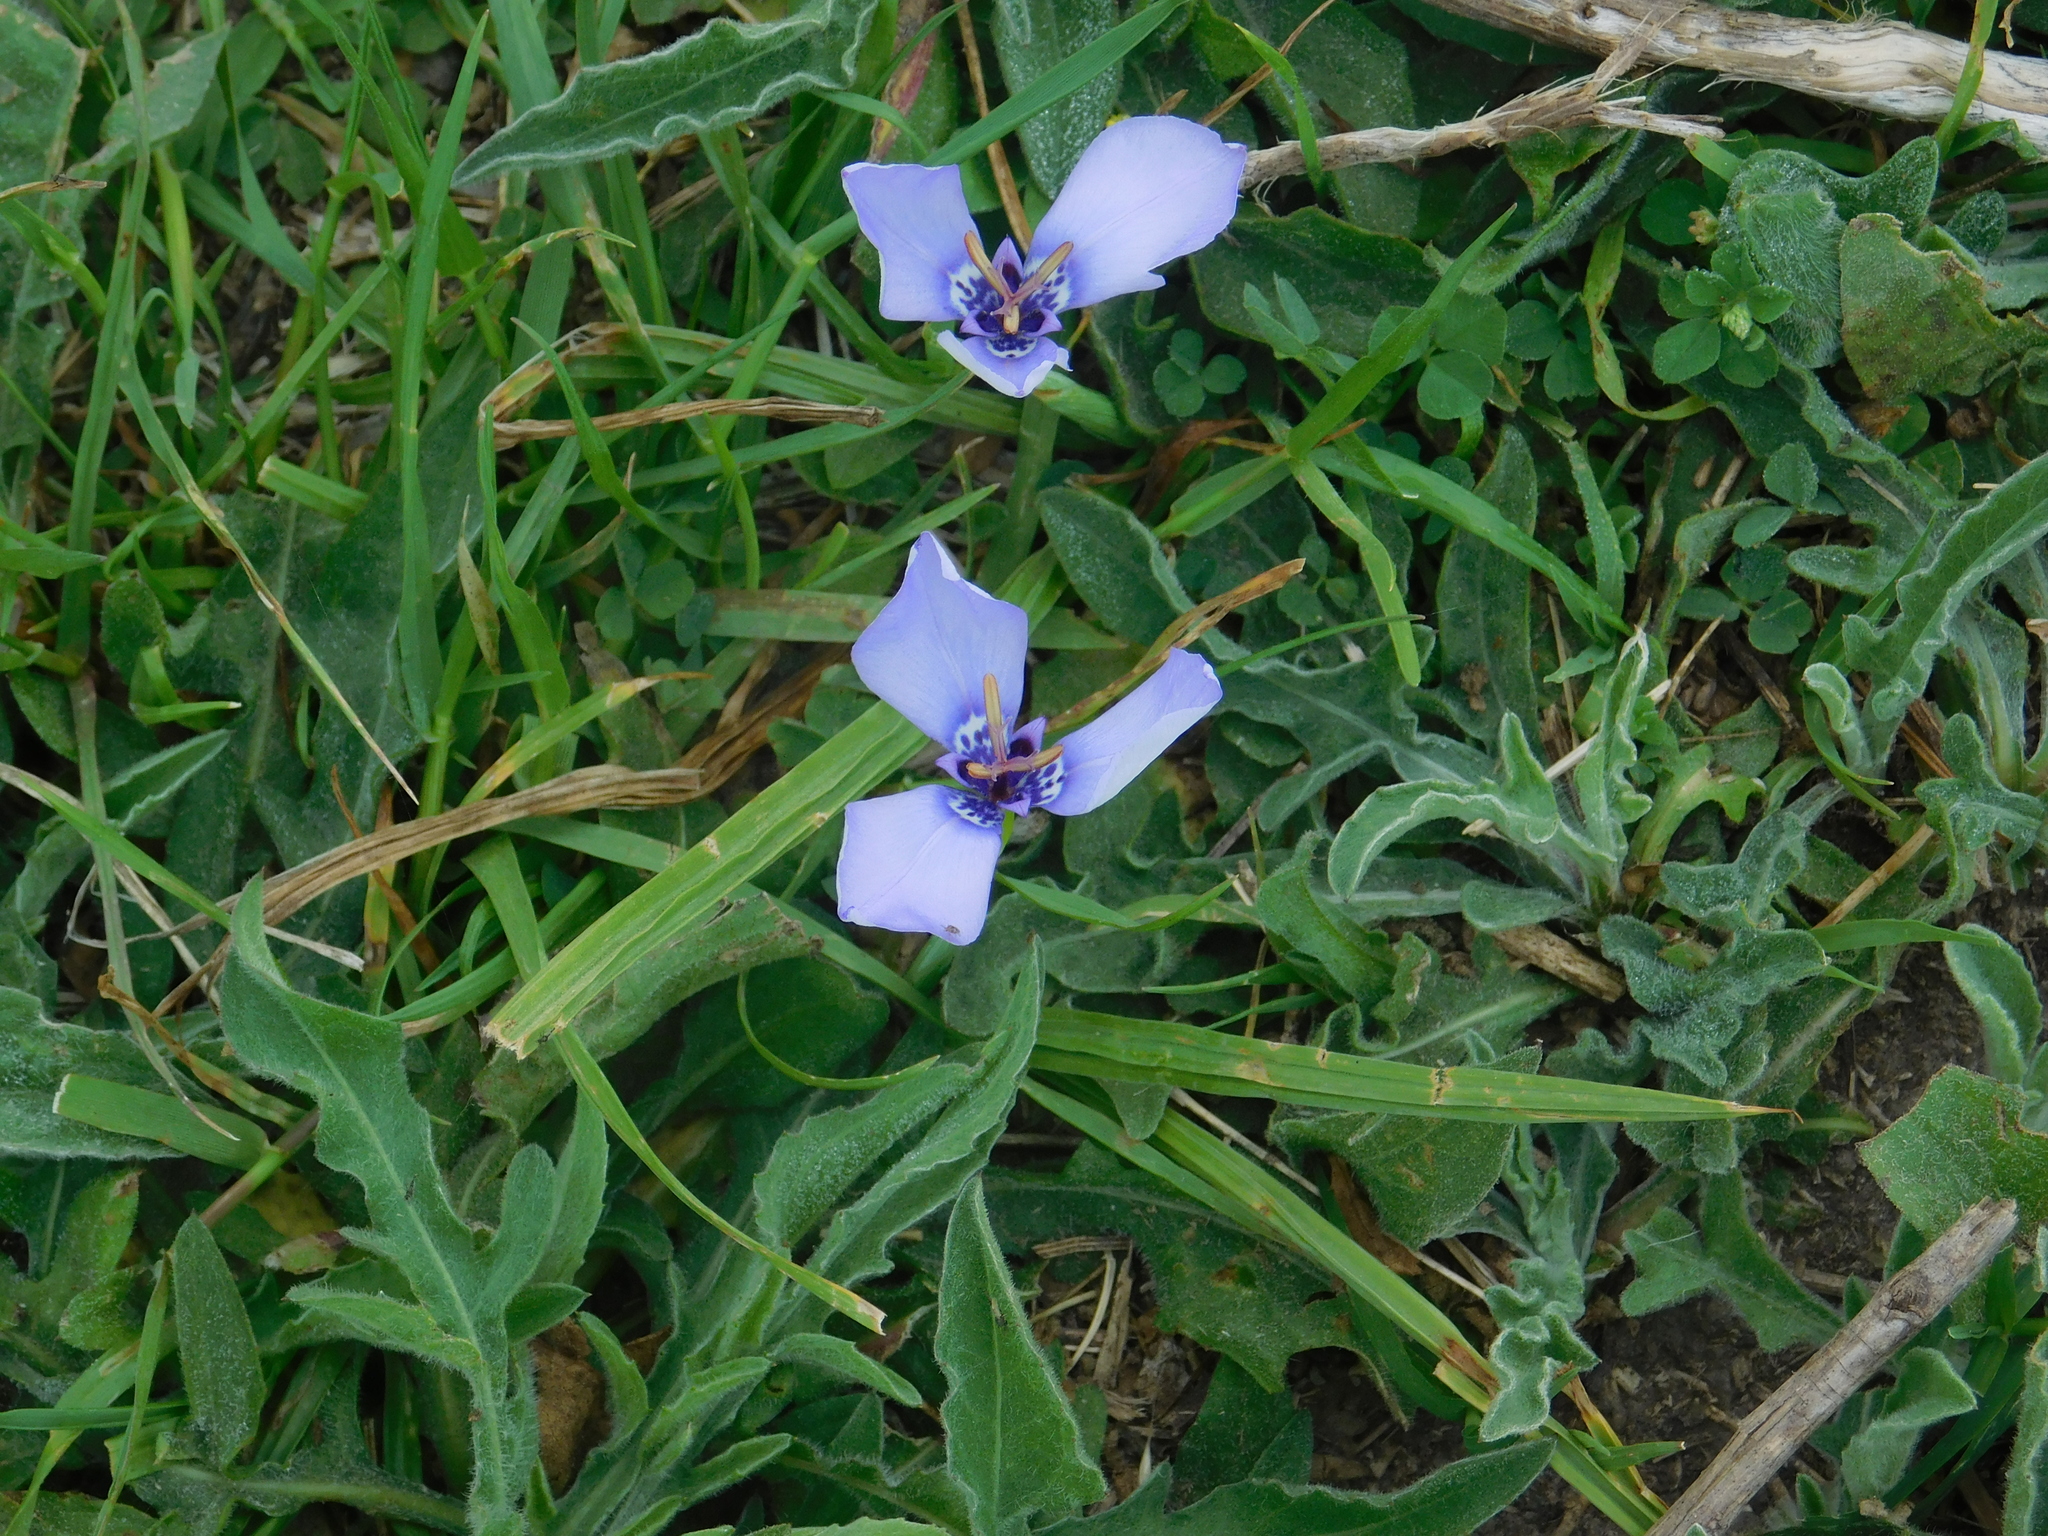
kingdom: Plantae
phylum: Tracheophyta
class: Liliopsida
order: Asparagales
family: Iridaceae
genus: Herbertia
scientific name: Herbertia lahue
